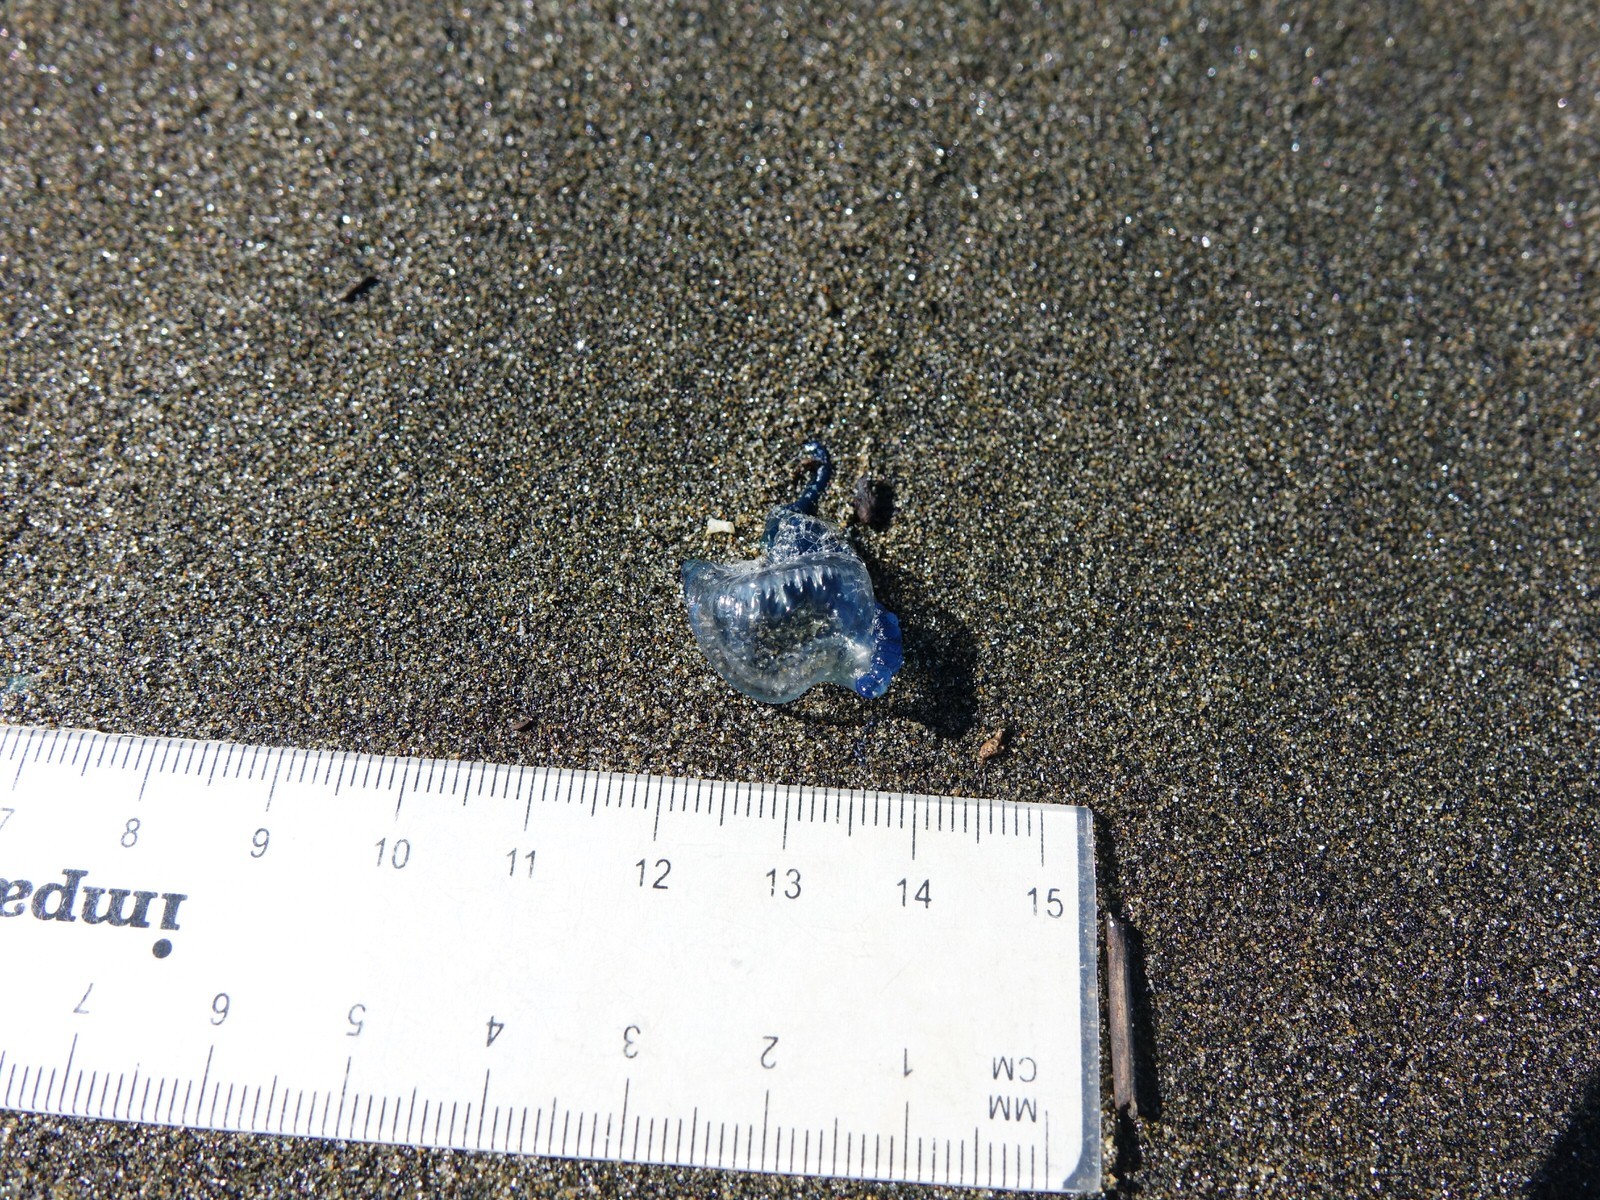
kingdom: Animalia
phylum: Cnidaria
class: Hydrozoa
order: Siphonophorae
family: Physaliidae
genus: Physalia
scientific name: Physalia physalis
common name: Portuguese man-of-war
